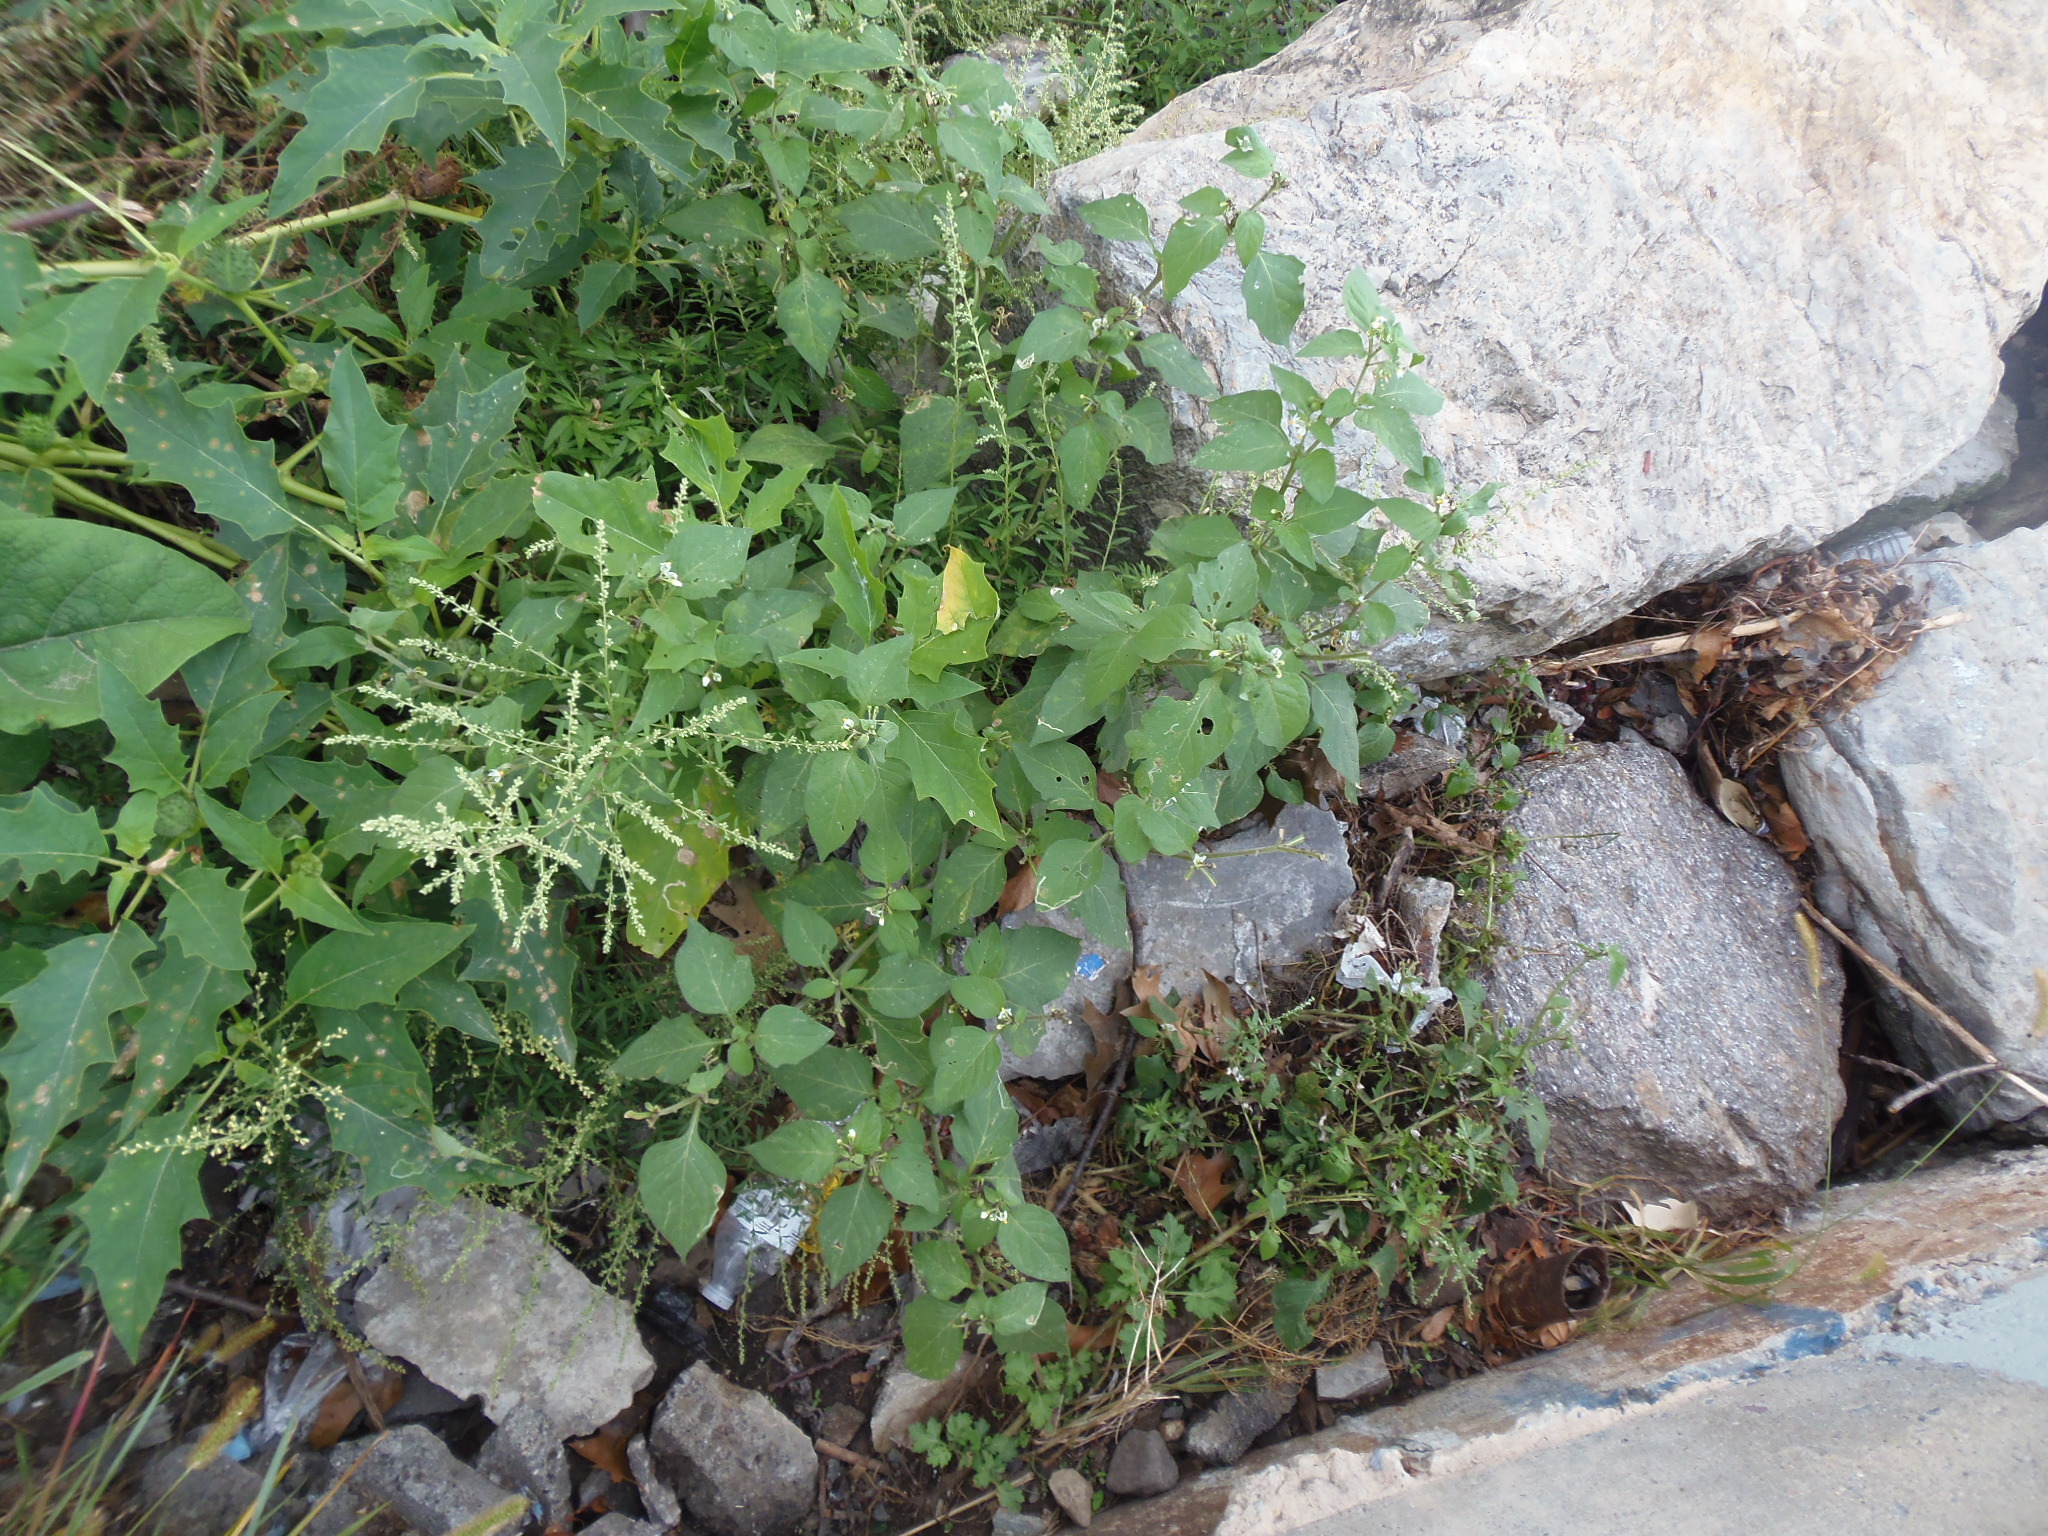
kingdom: Plantae
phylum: Tracheophyta
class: Magnoliopsida
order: Solanales
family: Solanaceae
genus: Datura
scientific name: Datura stramonium
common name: Thorn-apple
